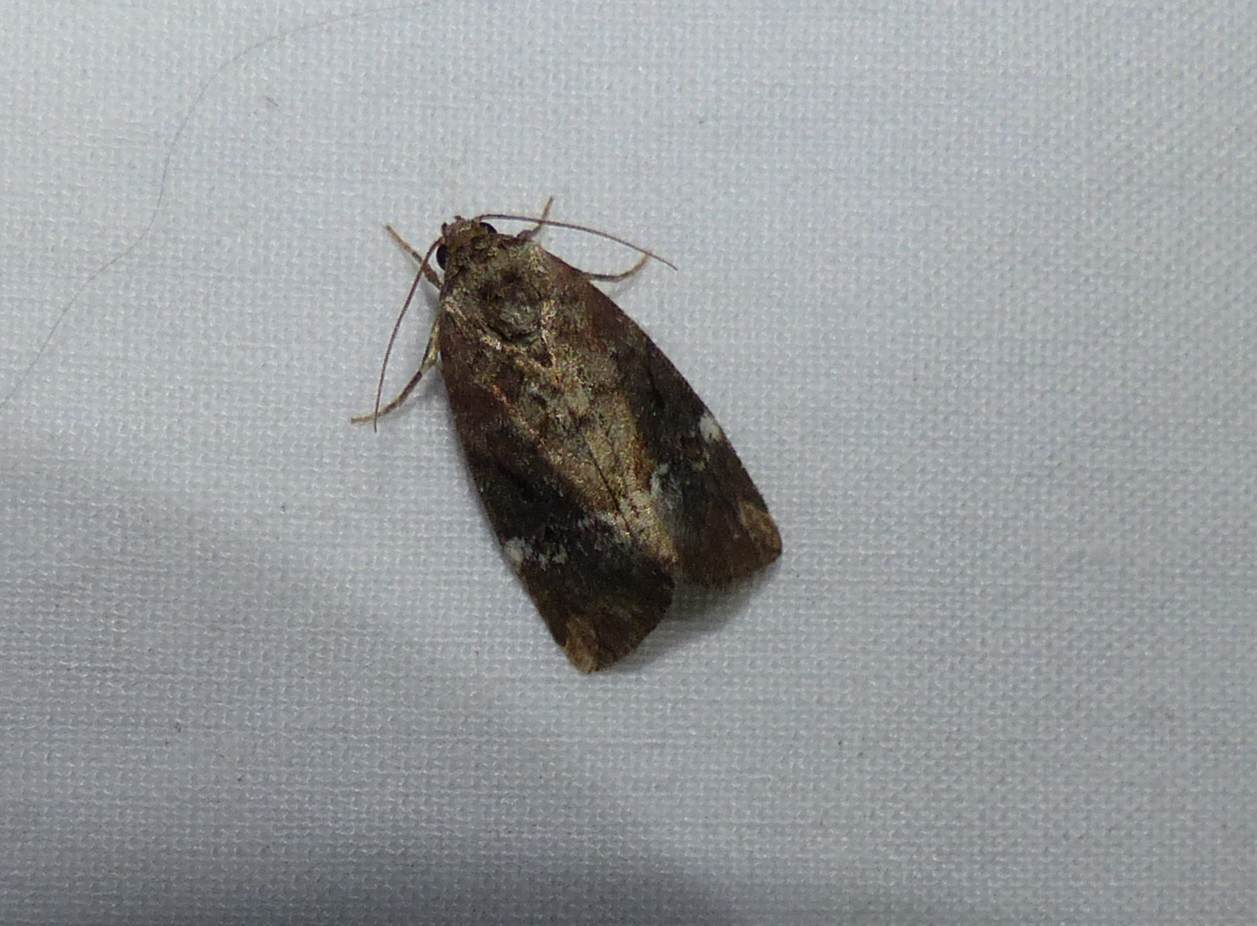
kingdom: Animalia
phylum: Arthropoda
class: Insecta
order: Lepidoptera
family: Noctuidae
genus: Elaphria
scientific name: Elaphria versicolor
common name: Fir harlequin
